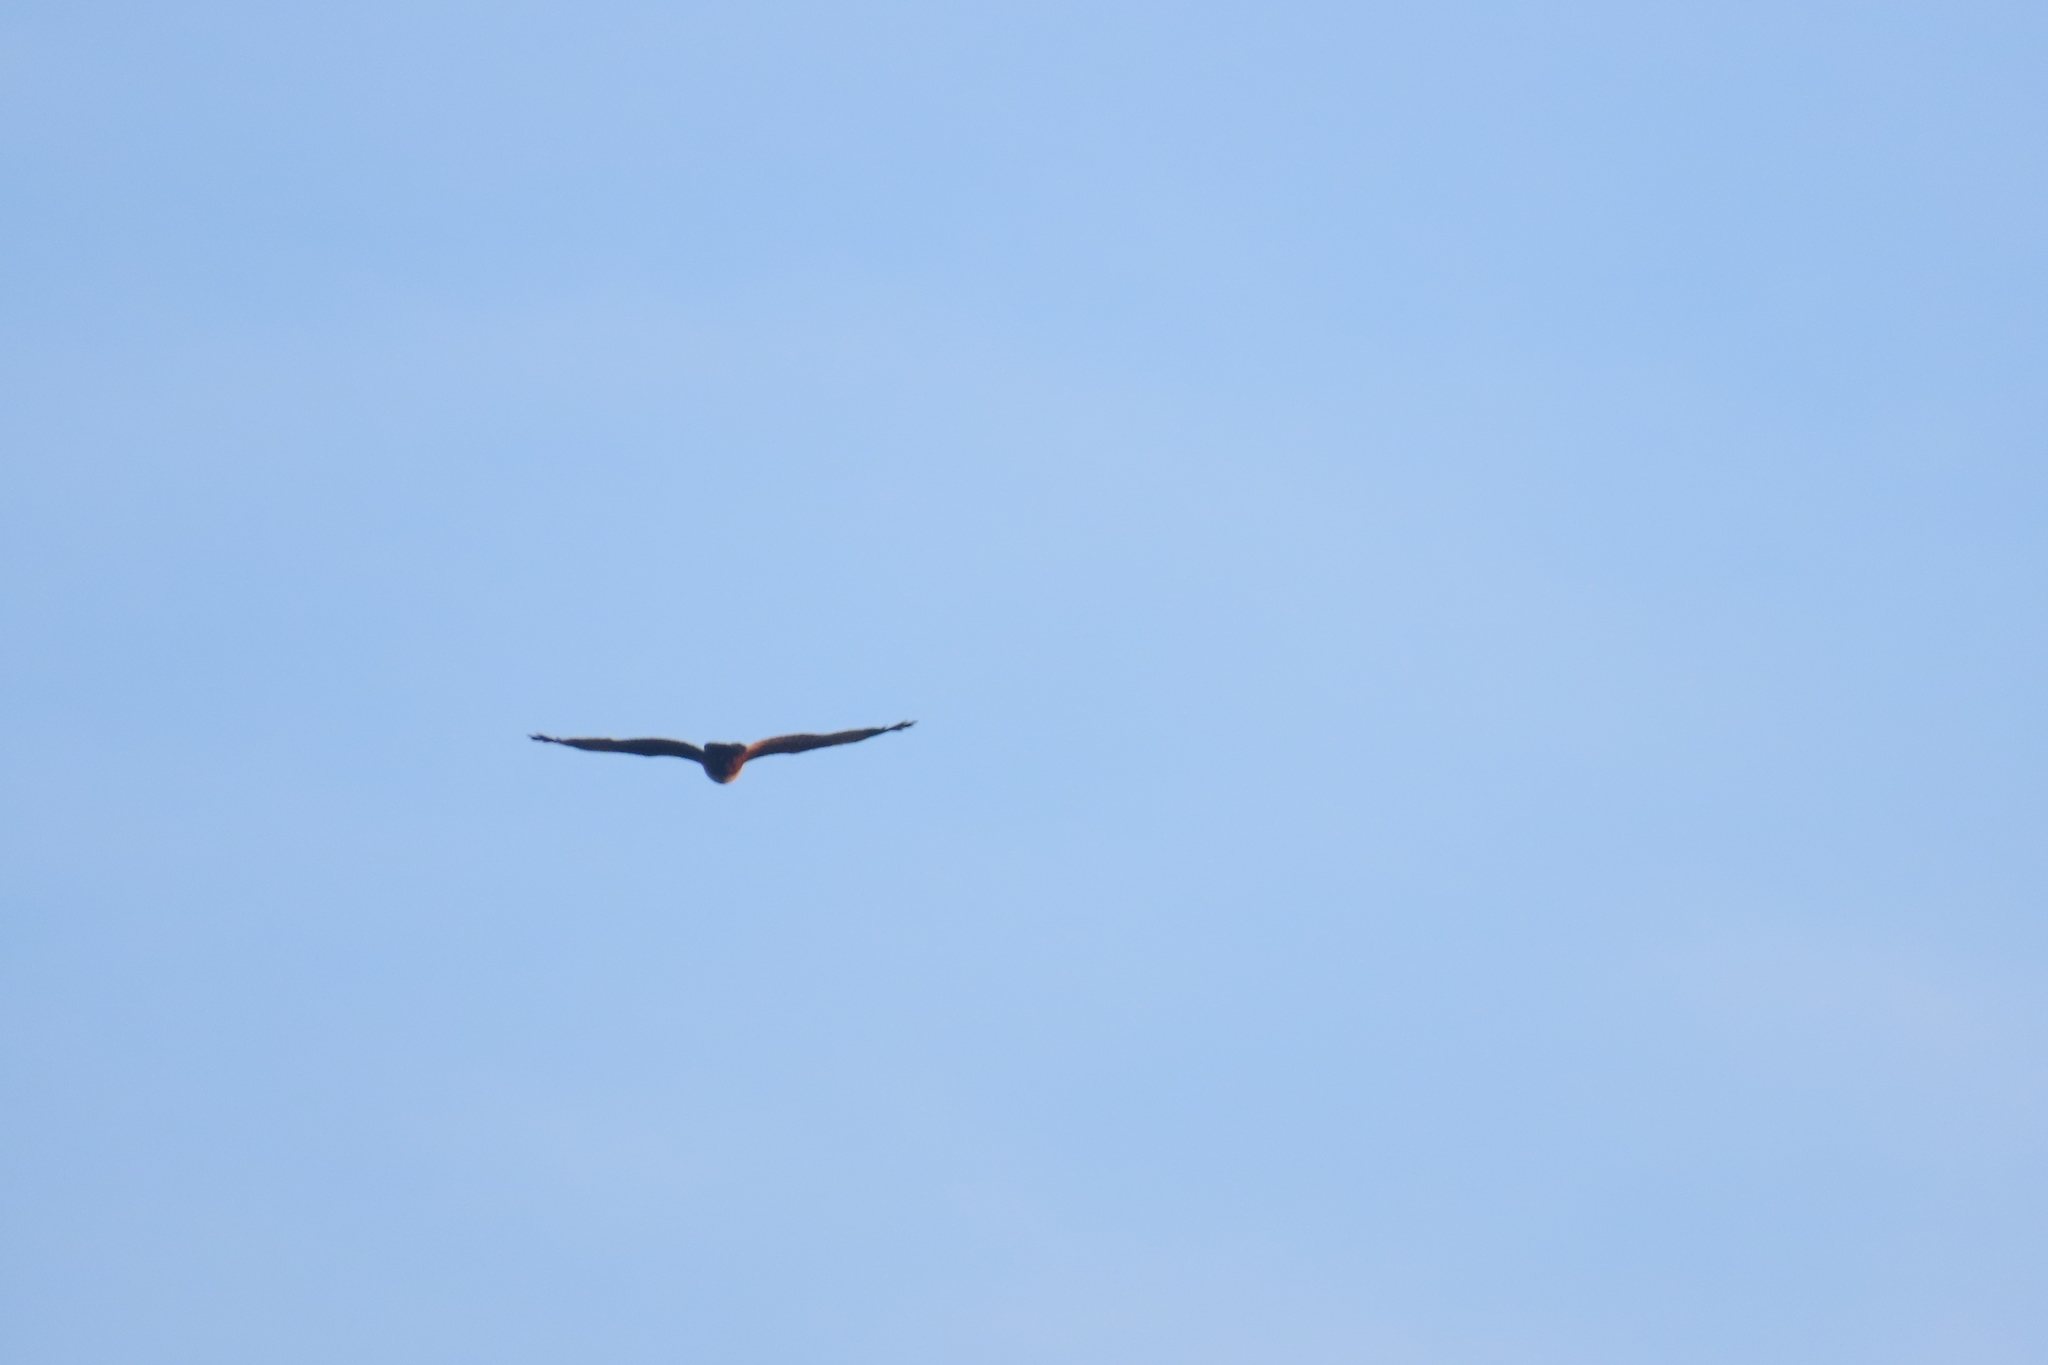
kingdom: Animalia
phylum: Chordata
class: Aves
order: Accipitriformes
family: Accipitridae
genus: Haliastur
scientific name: Haliastur indus
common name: Brahminy kite
